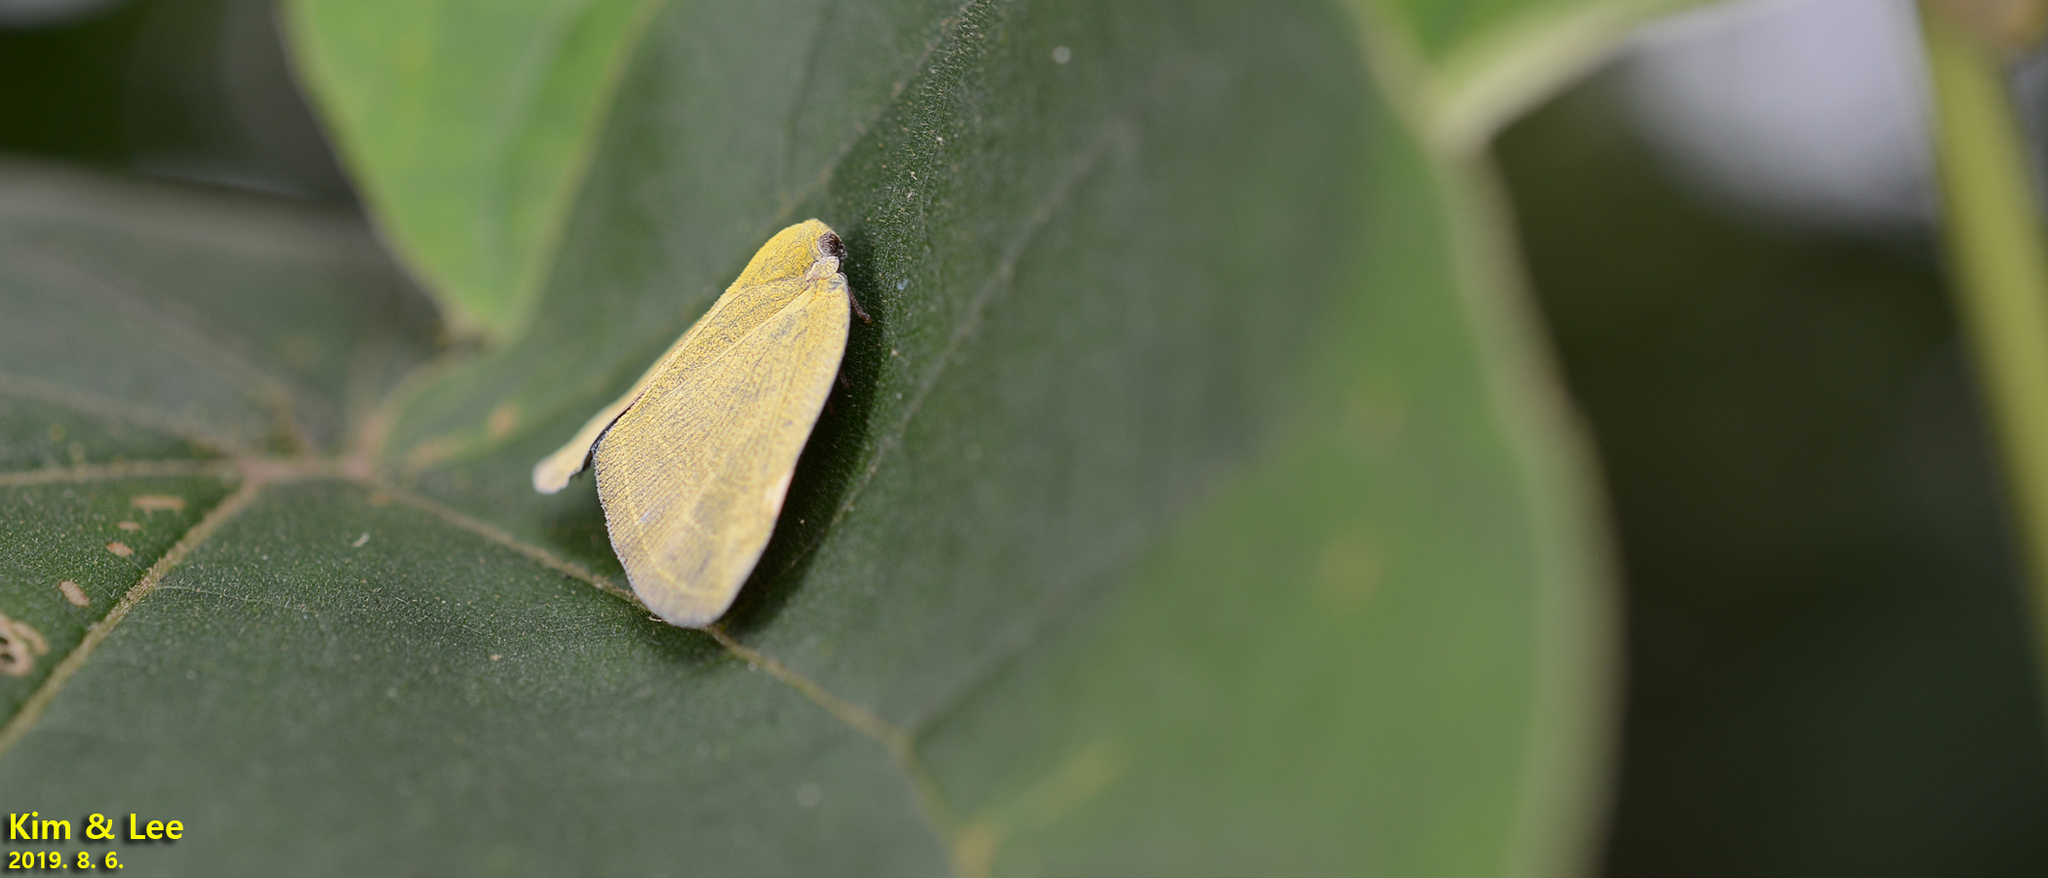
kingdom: Animalia
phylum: Arthropoda
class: Insecta
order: Hemiptera
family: Ricaniidae
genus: Ricanula
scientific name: Ricanula sublimata
